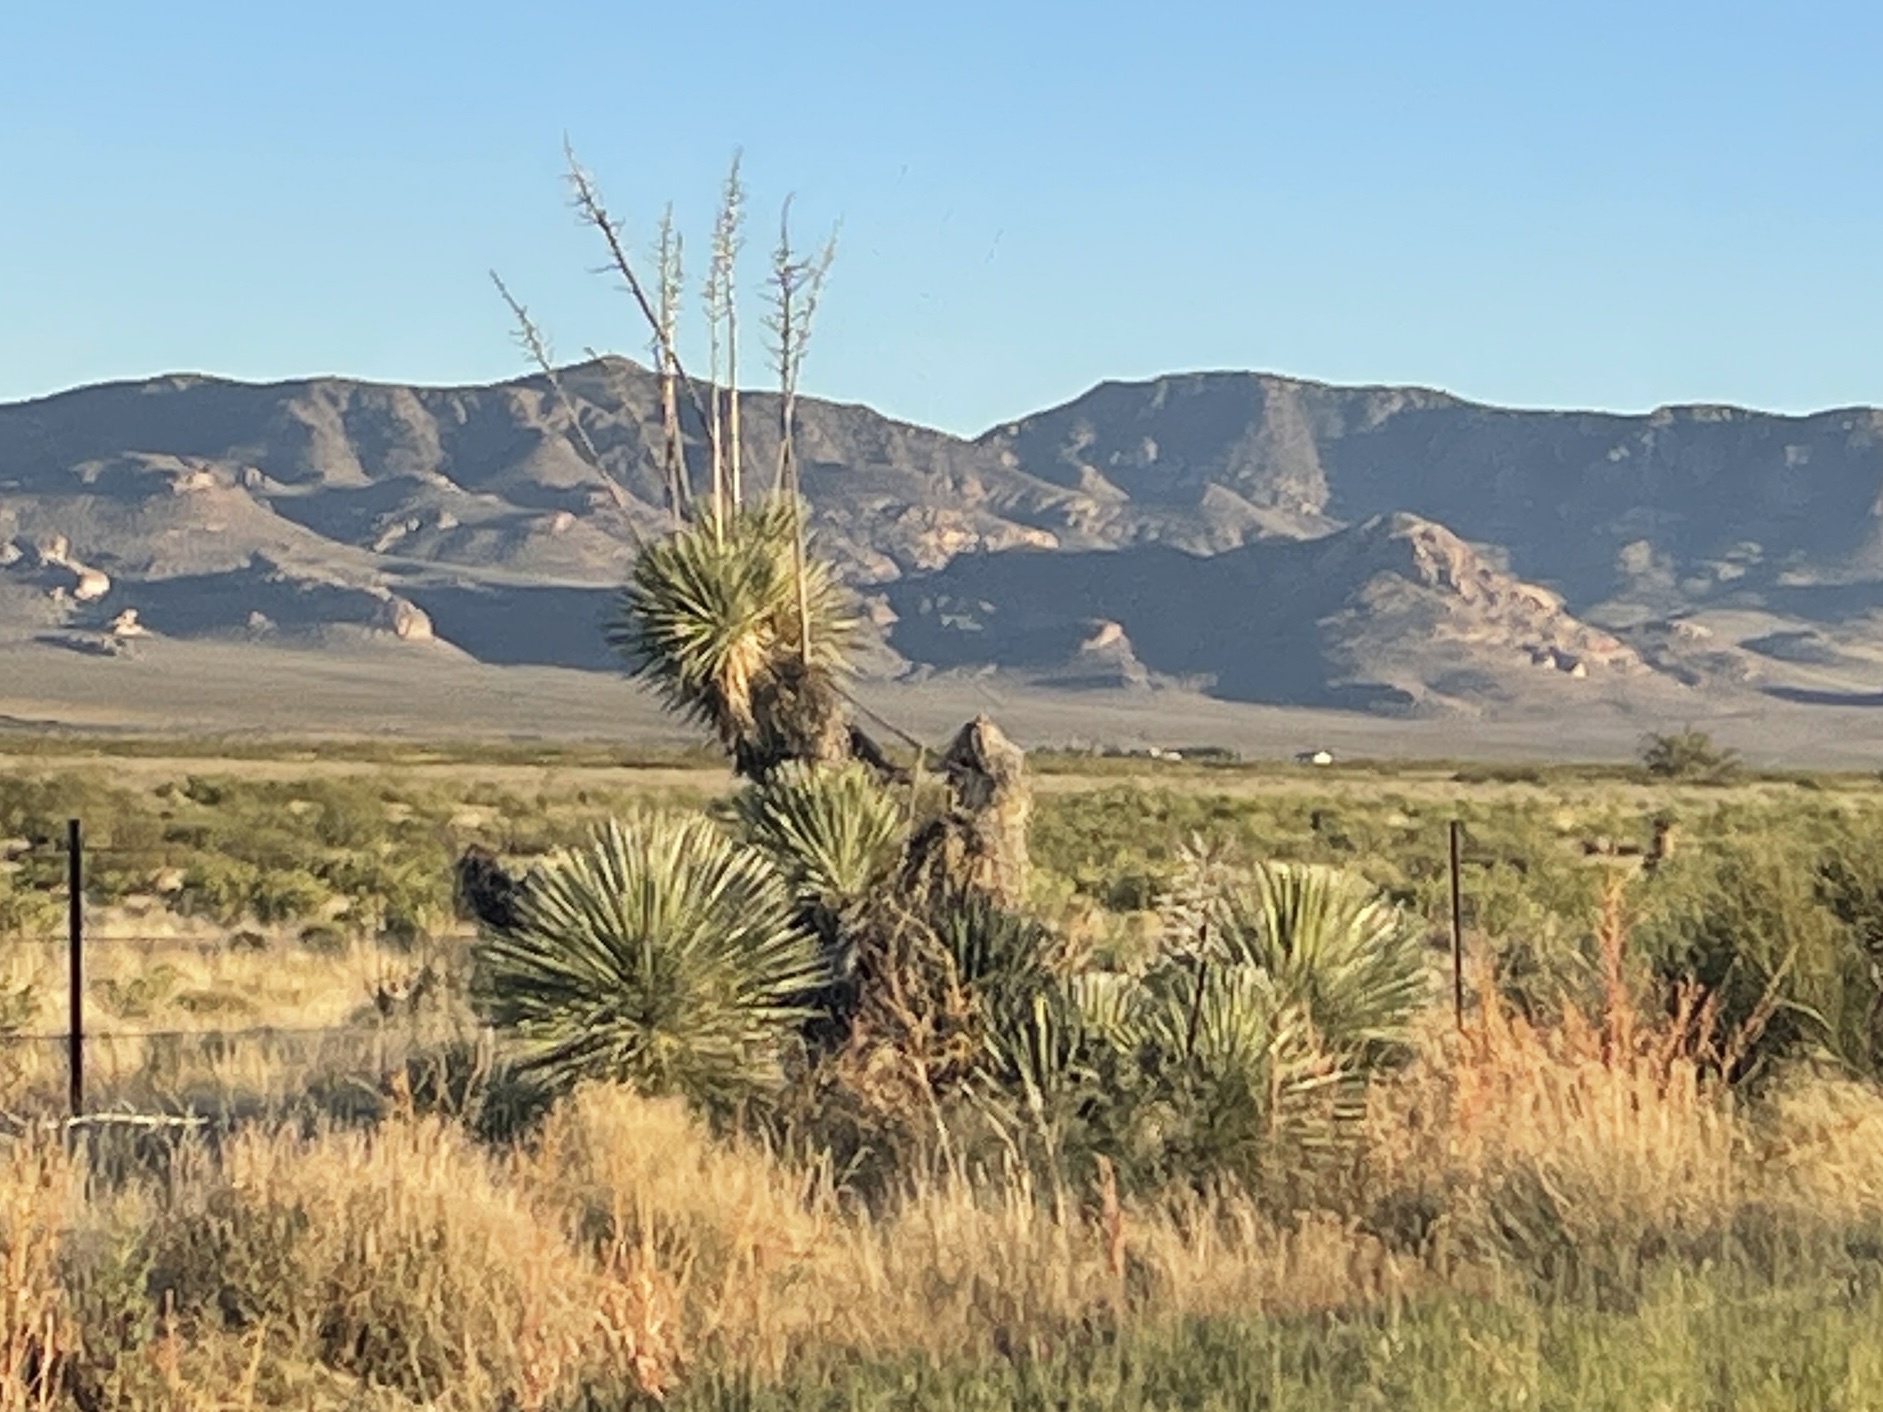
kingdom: Plantae
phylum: Tracheophyta
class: Liliopsida
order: Asparagales
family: Asparagaceae
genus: Yucca
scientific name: Yucca elata
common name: Palmella
